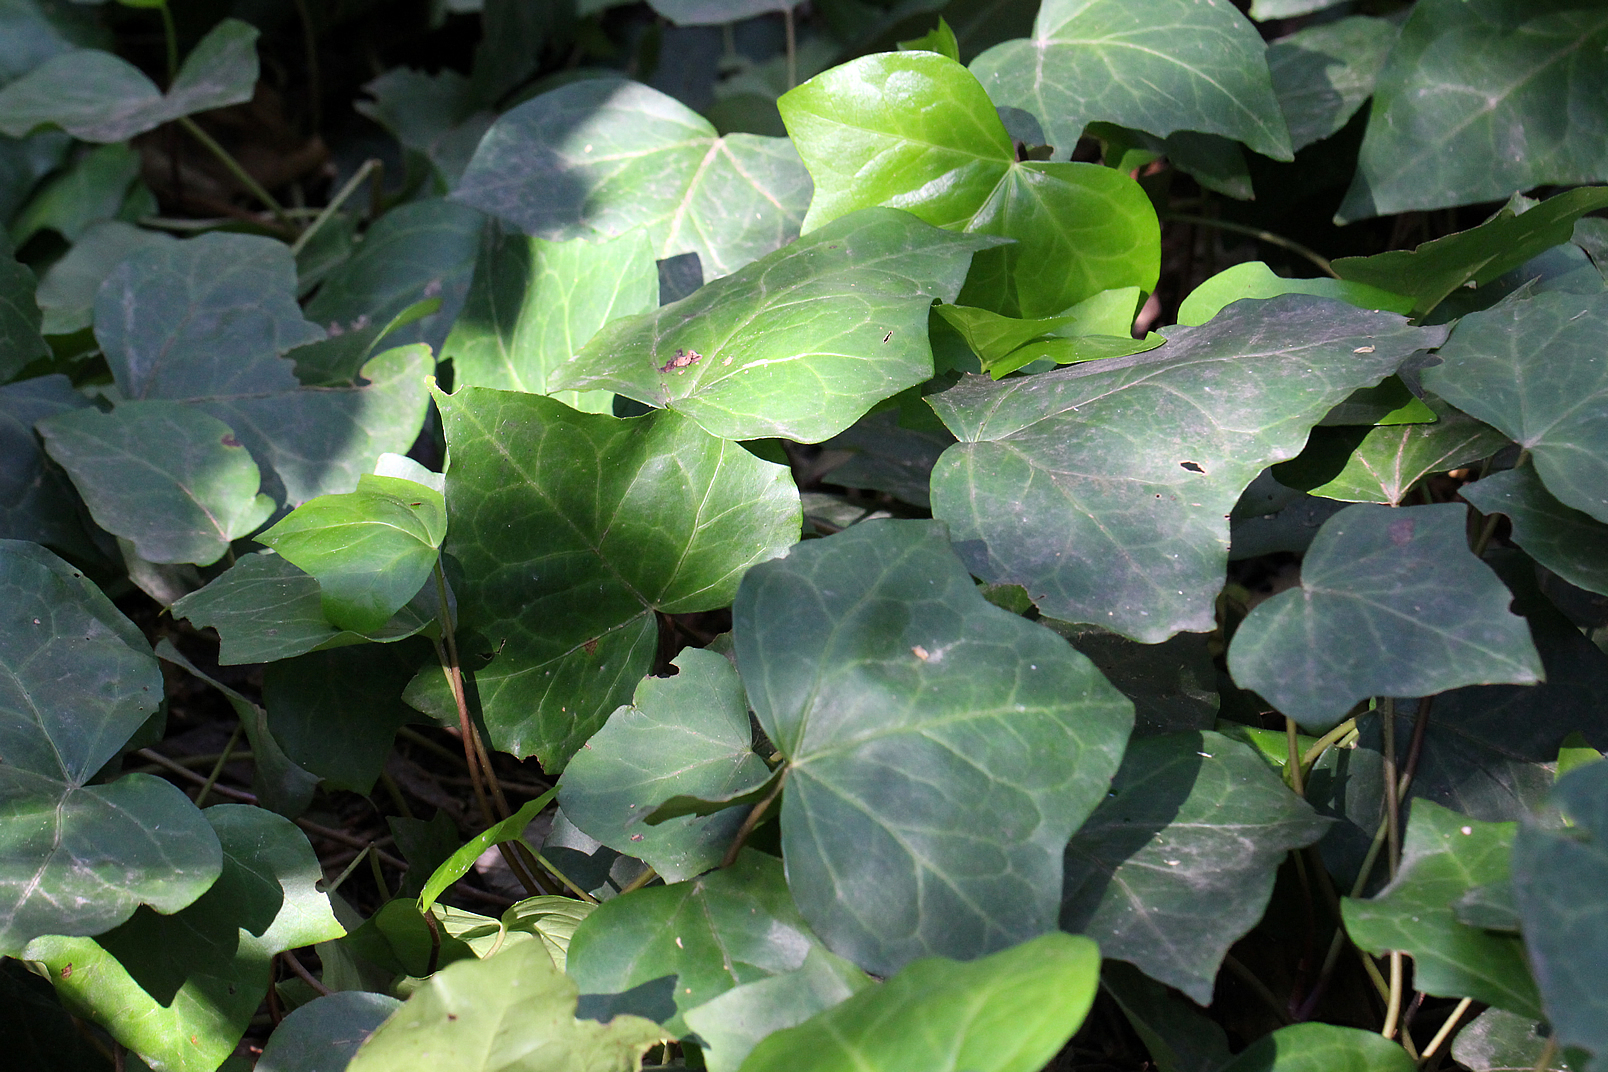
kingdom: Plantae
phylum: Tracheophyta
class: Magnoliopsida
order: Apiales
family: Araliaceae
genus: Hedera
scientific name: Hedera helix
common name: Ivy
